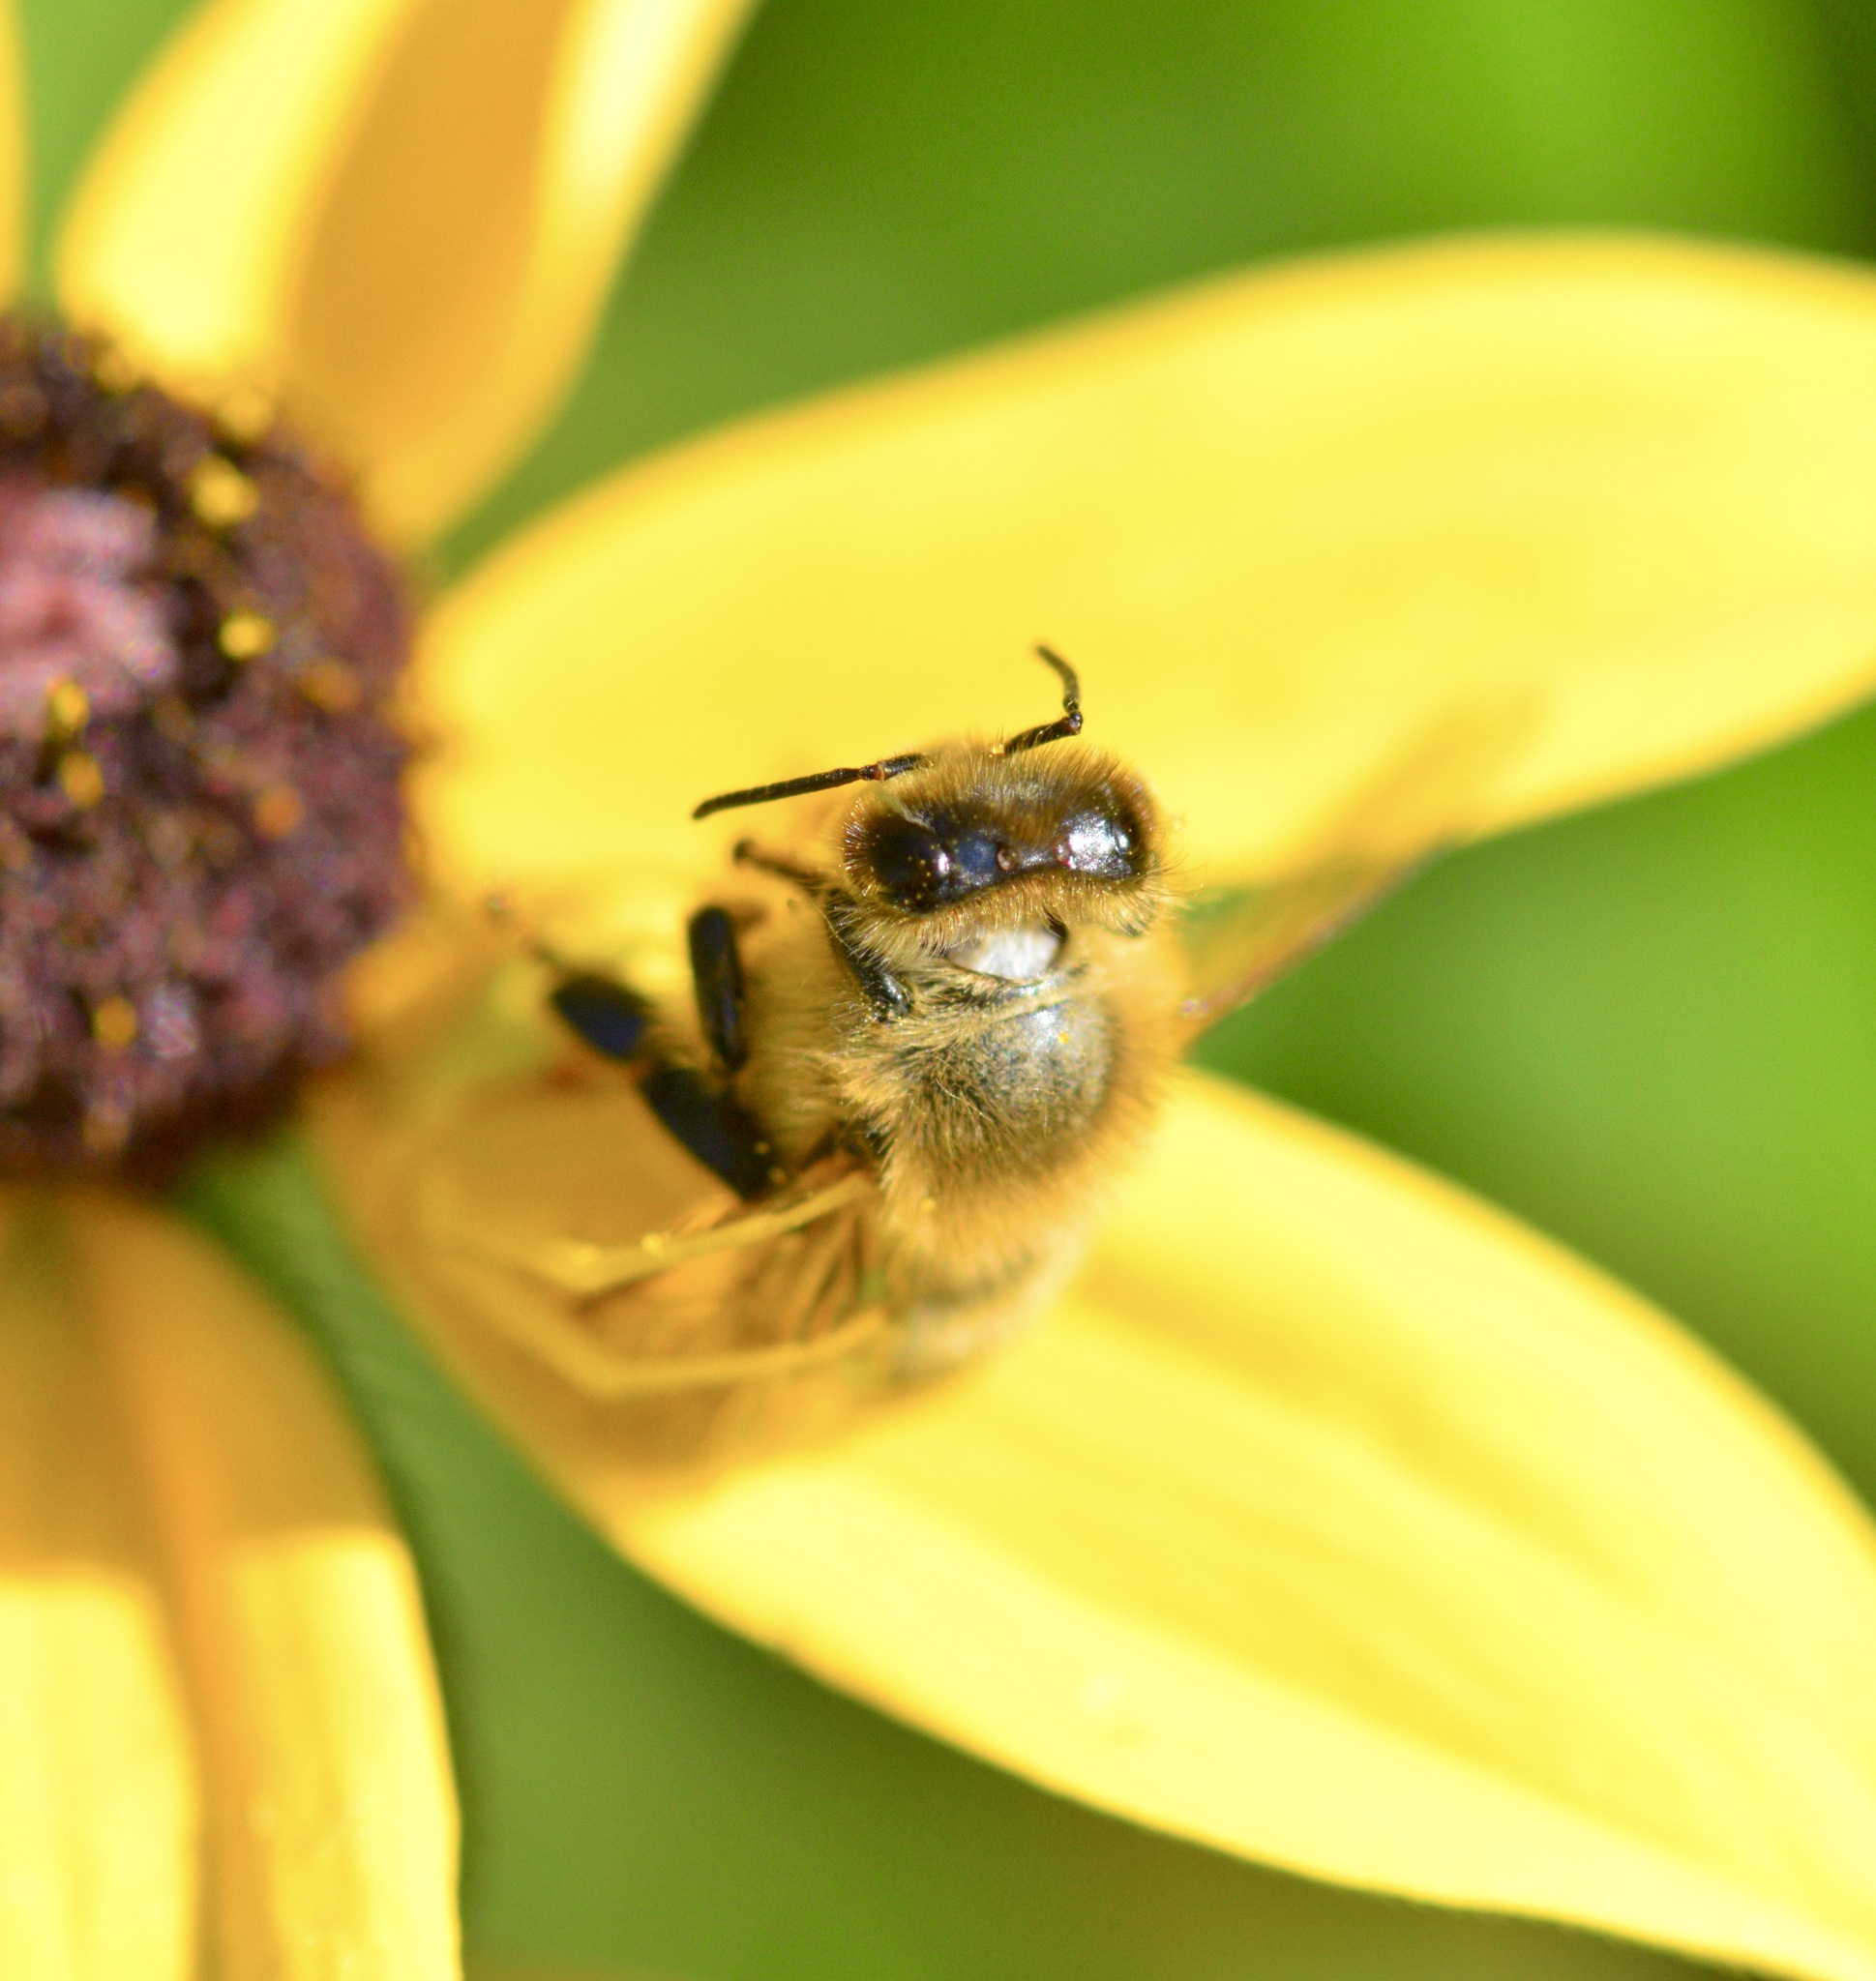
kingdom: Animalia
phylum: Arthropoda
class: Insecta
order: Hymenoptera
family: Apidae
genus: Apis
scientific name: Apis mellifera
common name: Honey bee
